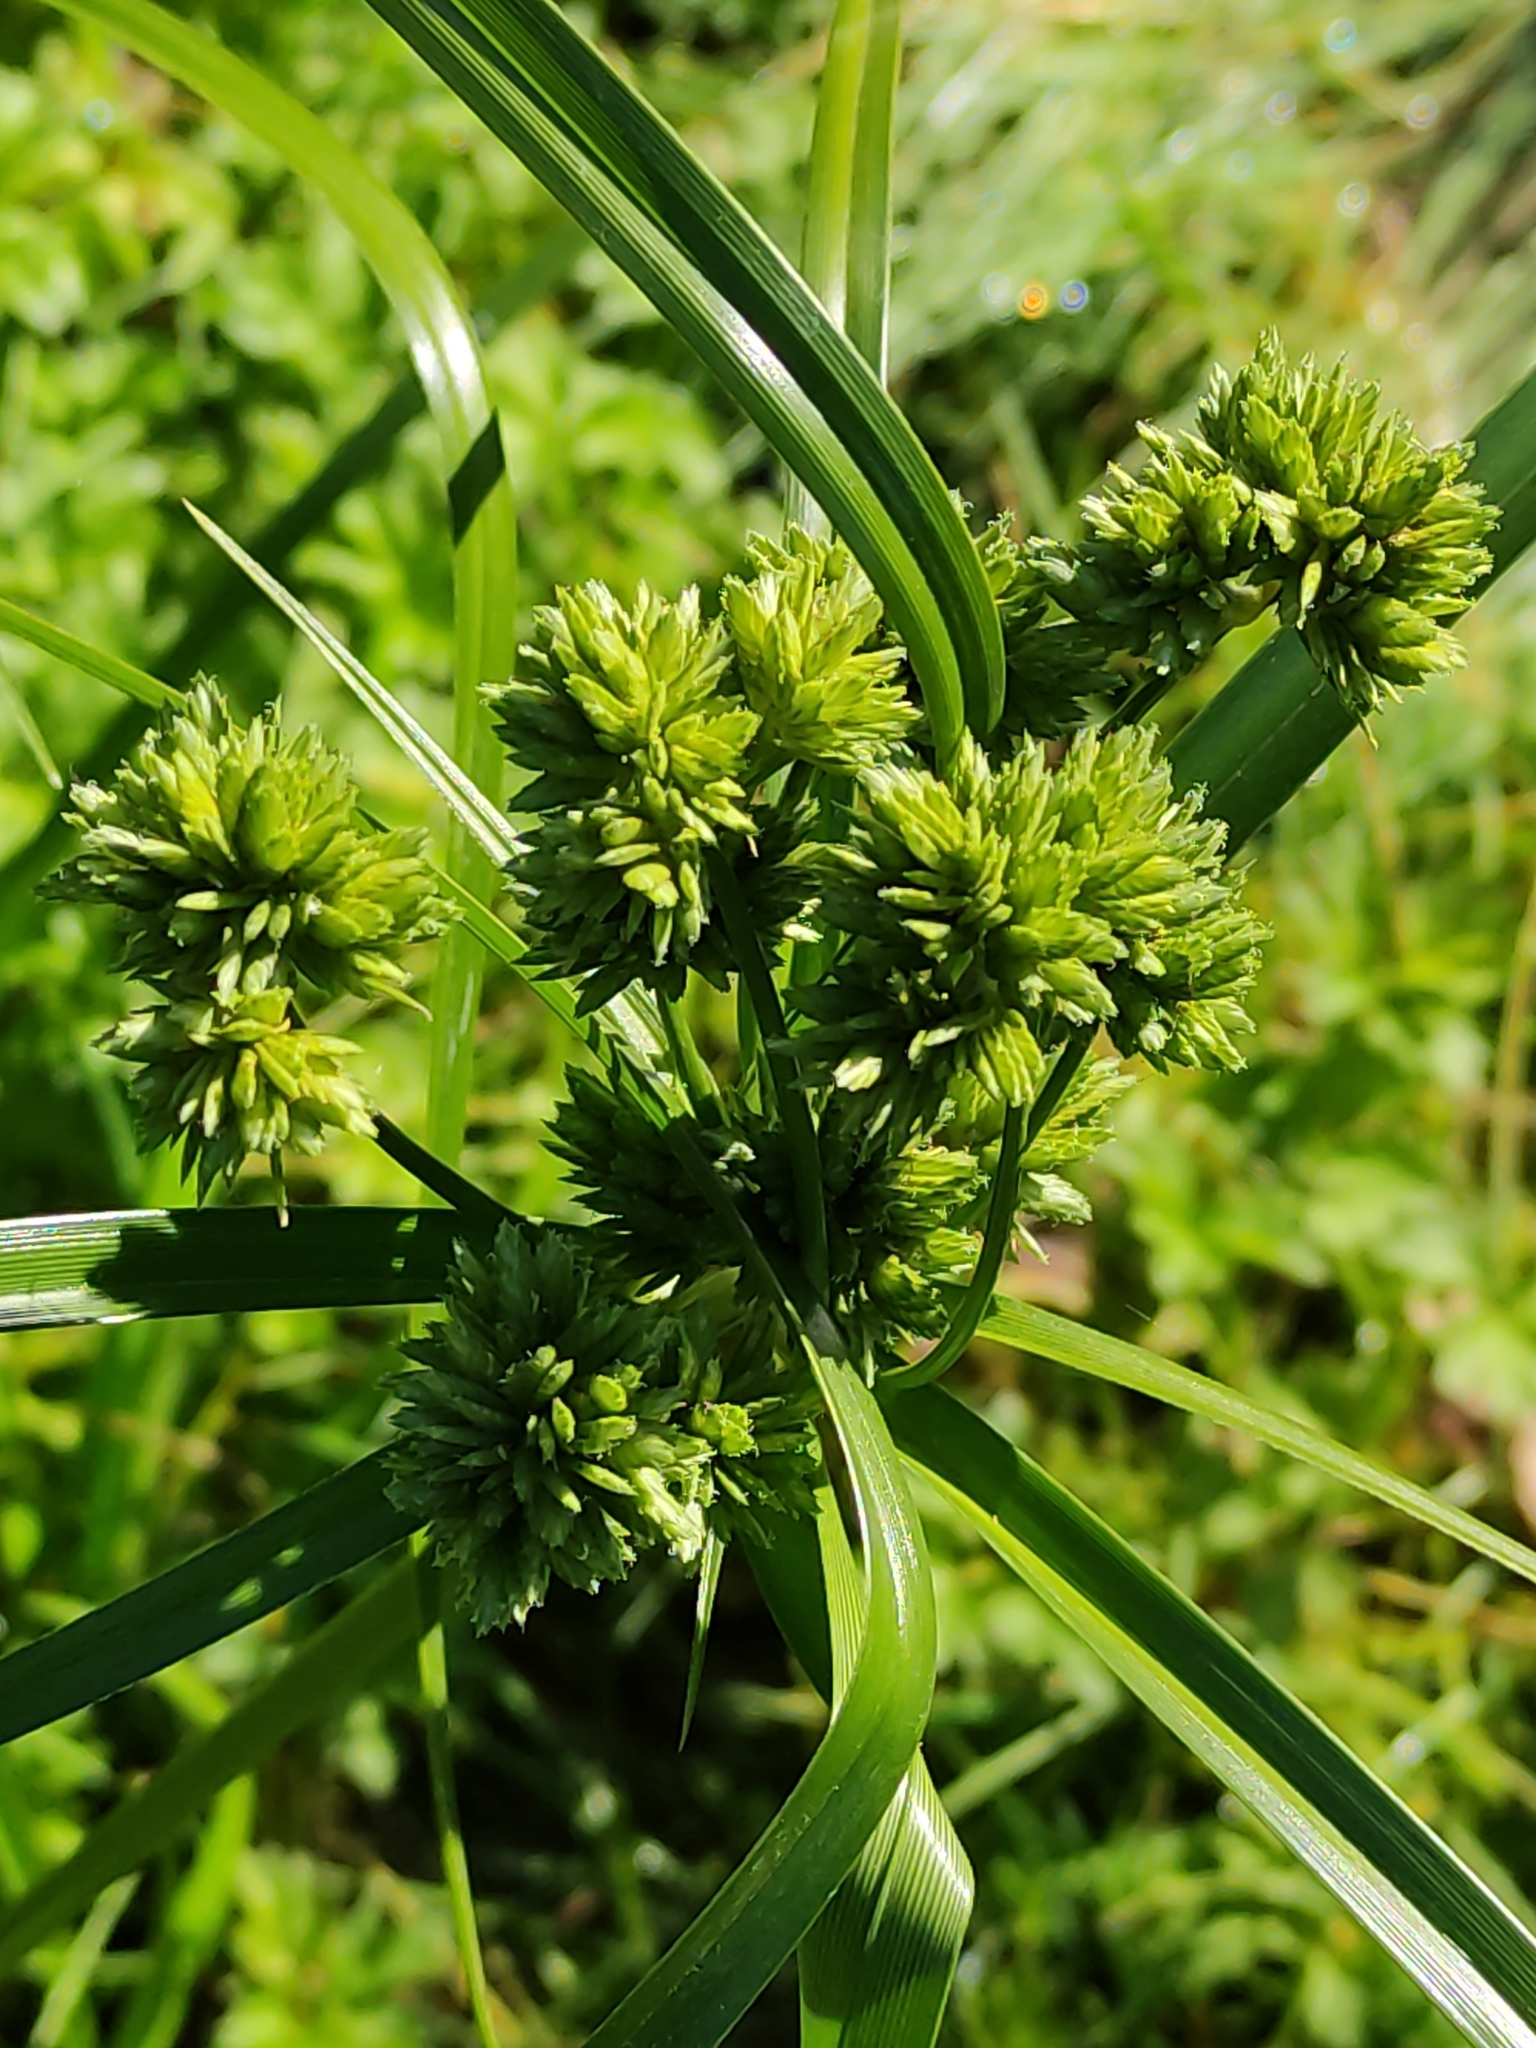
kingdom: Plantae
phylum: Tracheophyta
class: Liliopsida
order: Poales
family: Cyperaceae
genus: Cyperus
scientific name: Cyperus eragrostis
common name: Tall flatsedge
